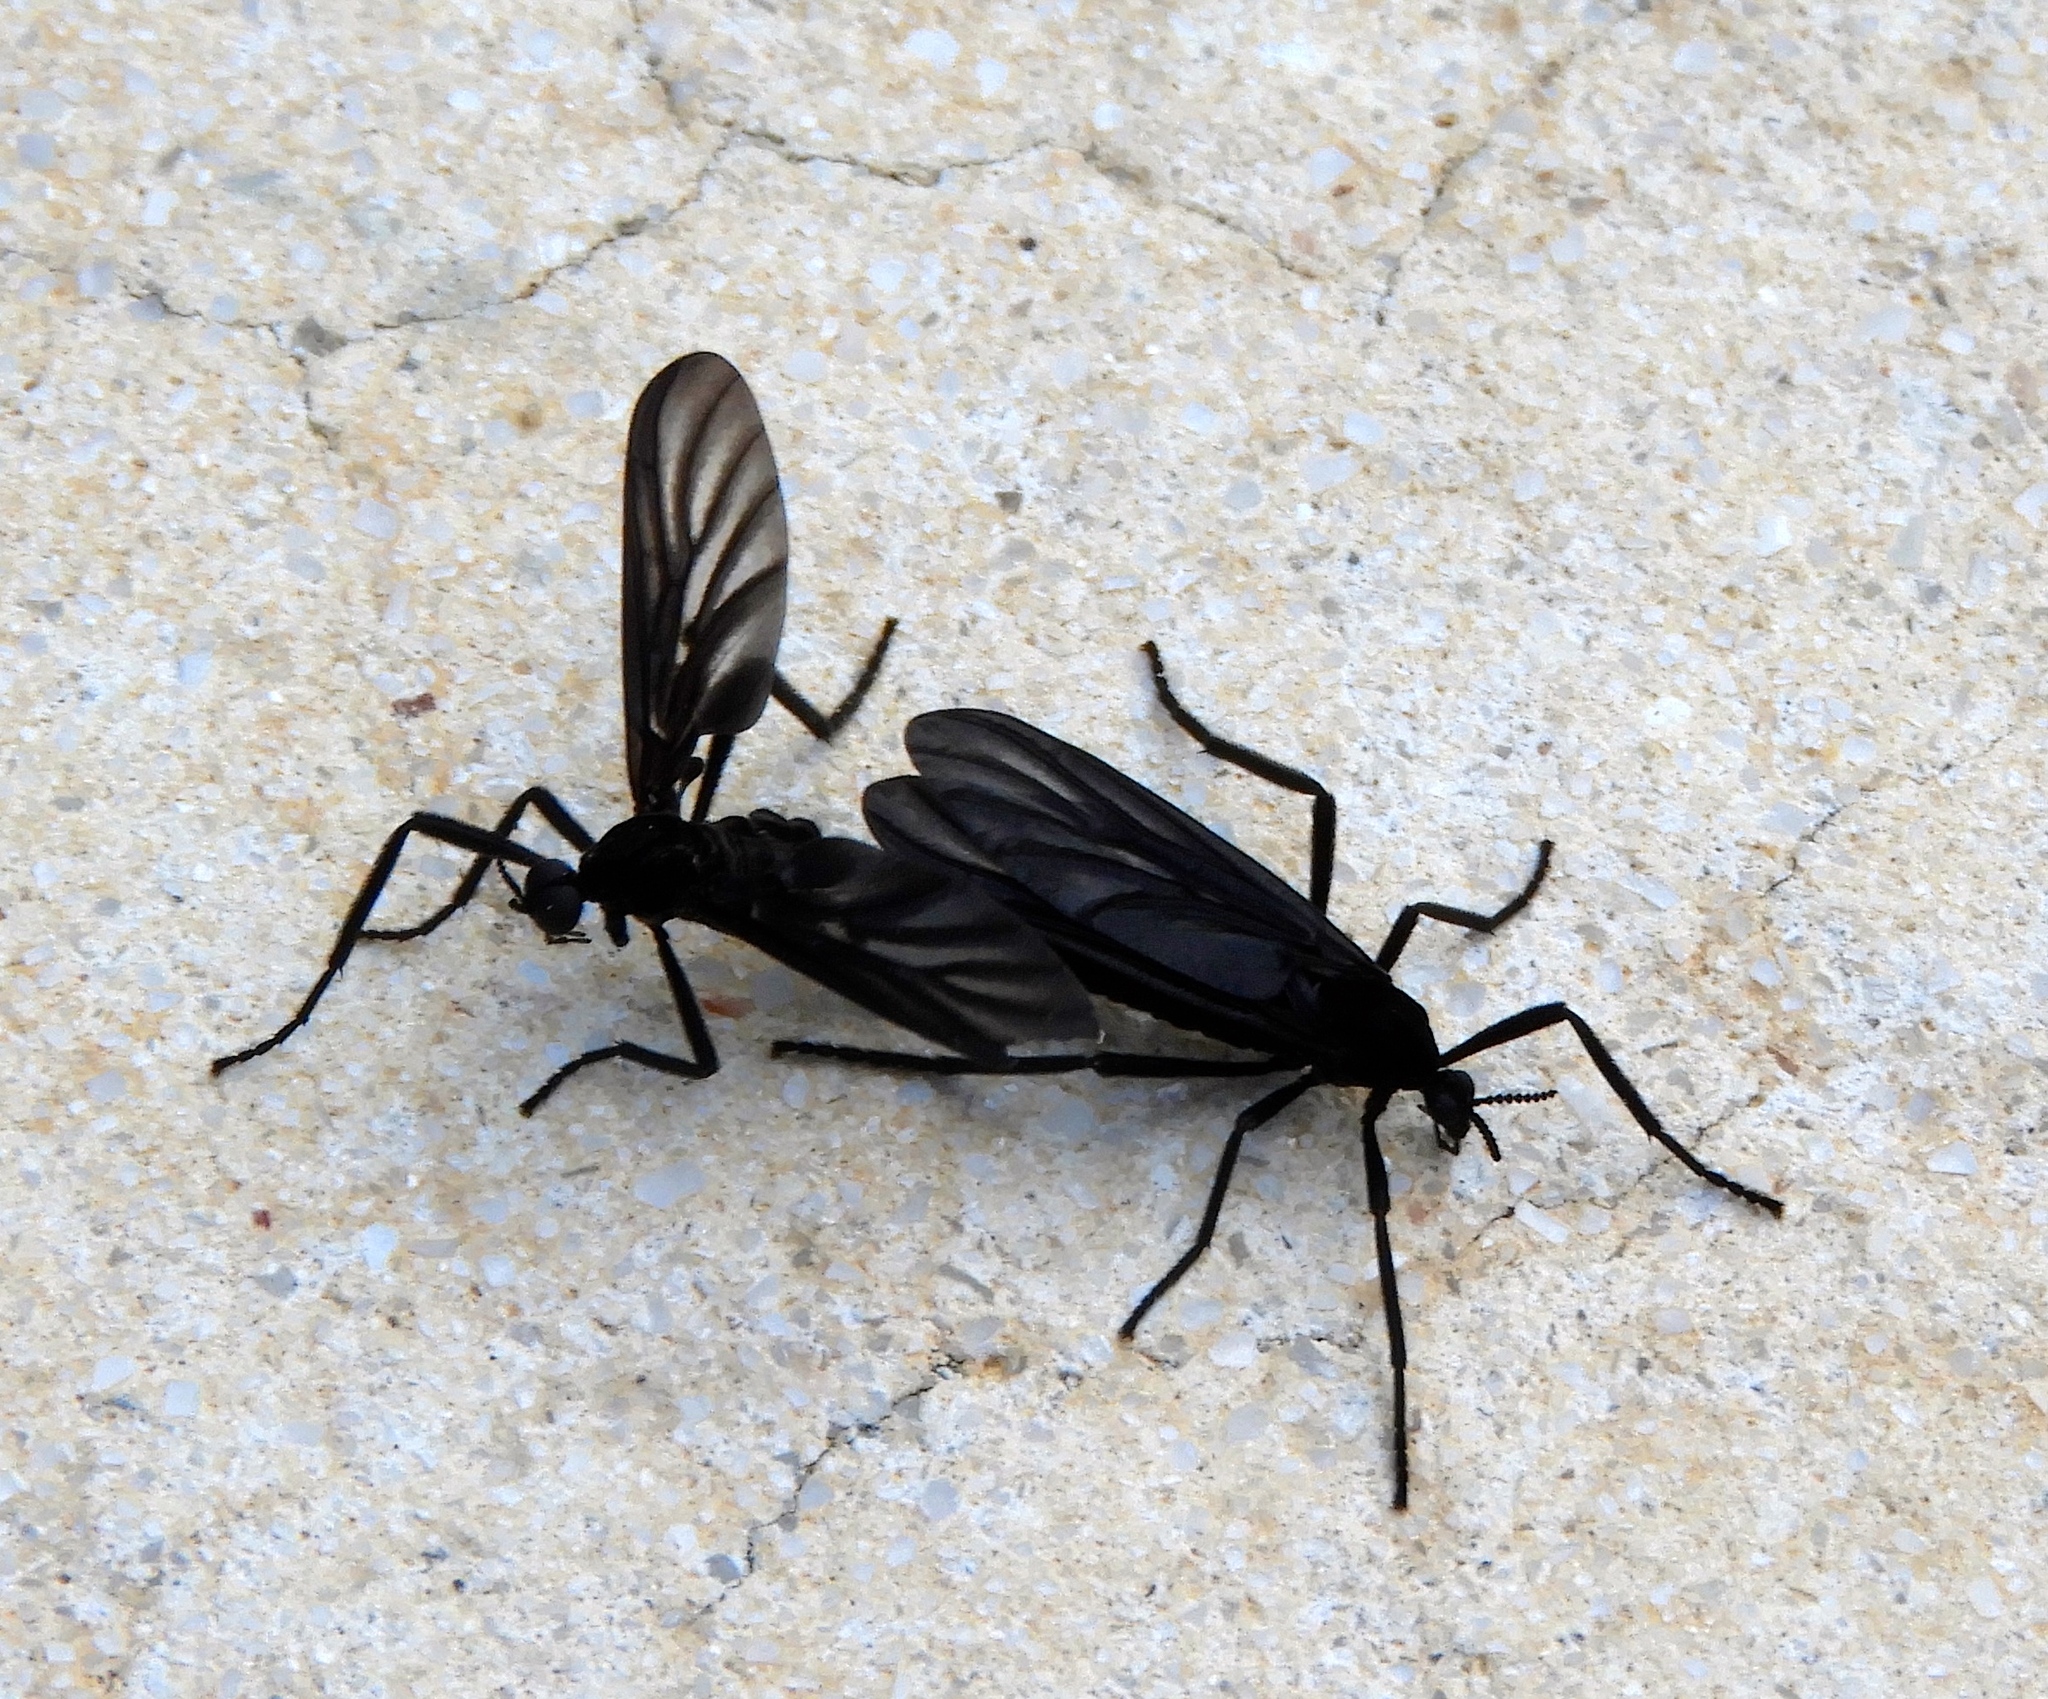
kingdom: Animalia
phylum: Arthropoda
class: Insecta
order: Diptera
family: Bibionidae
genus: Plecia
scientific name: Plecia plagiata
